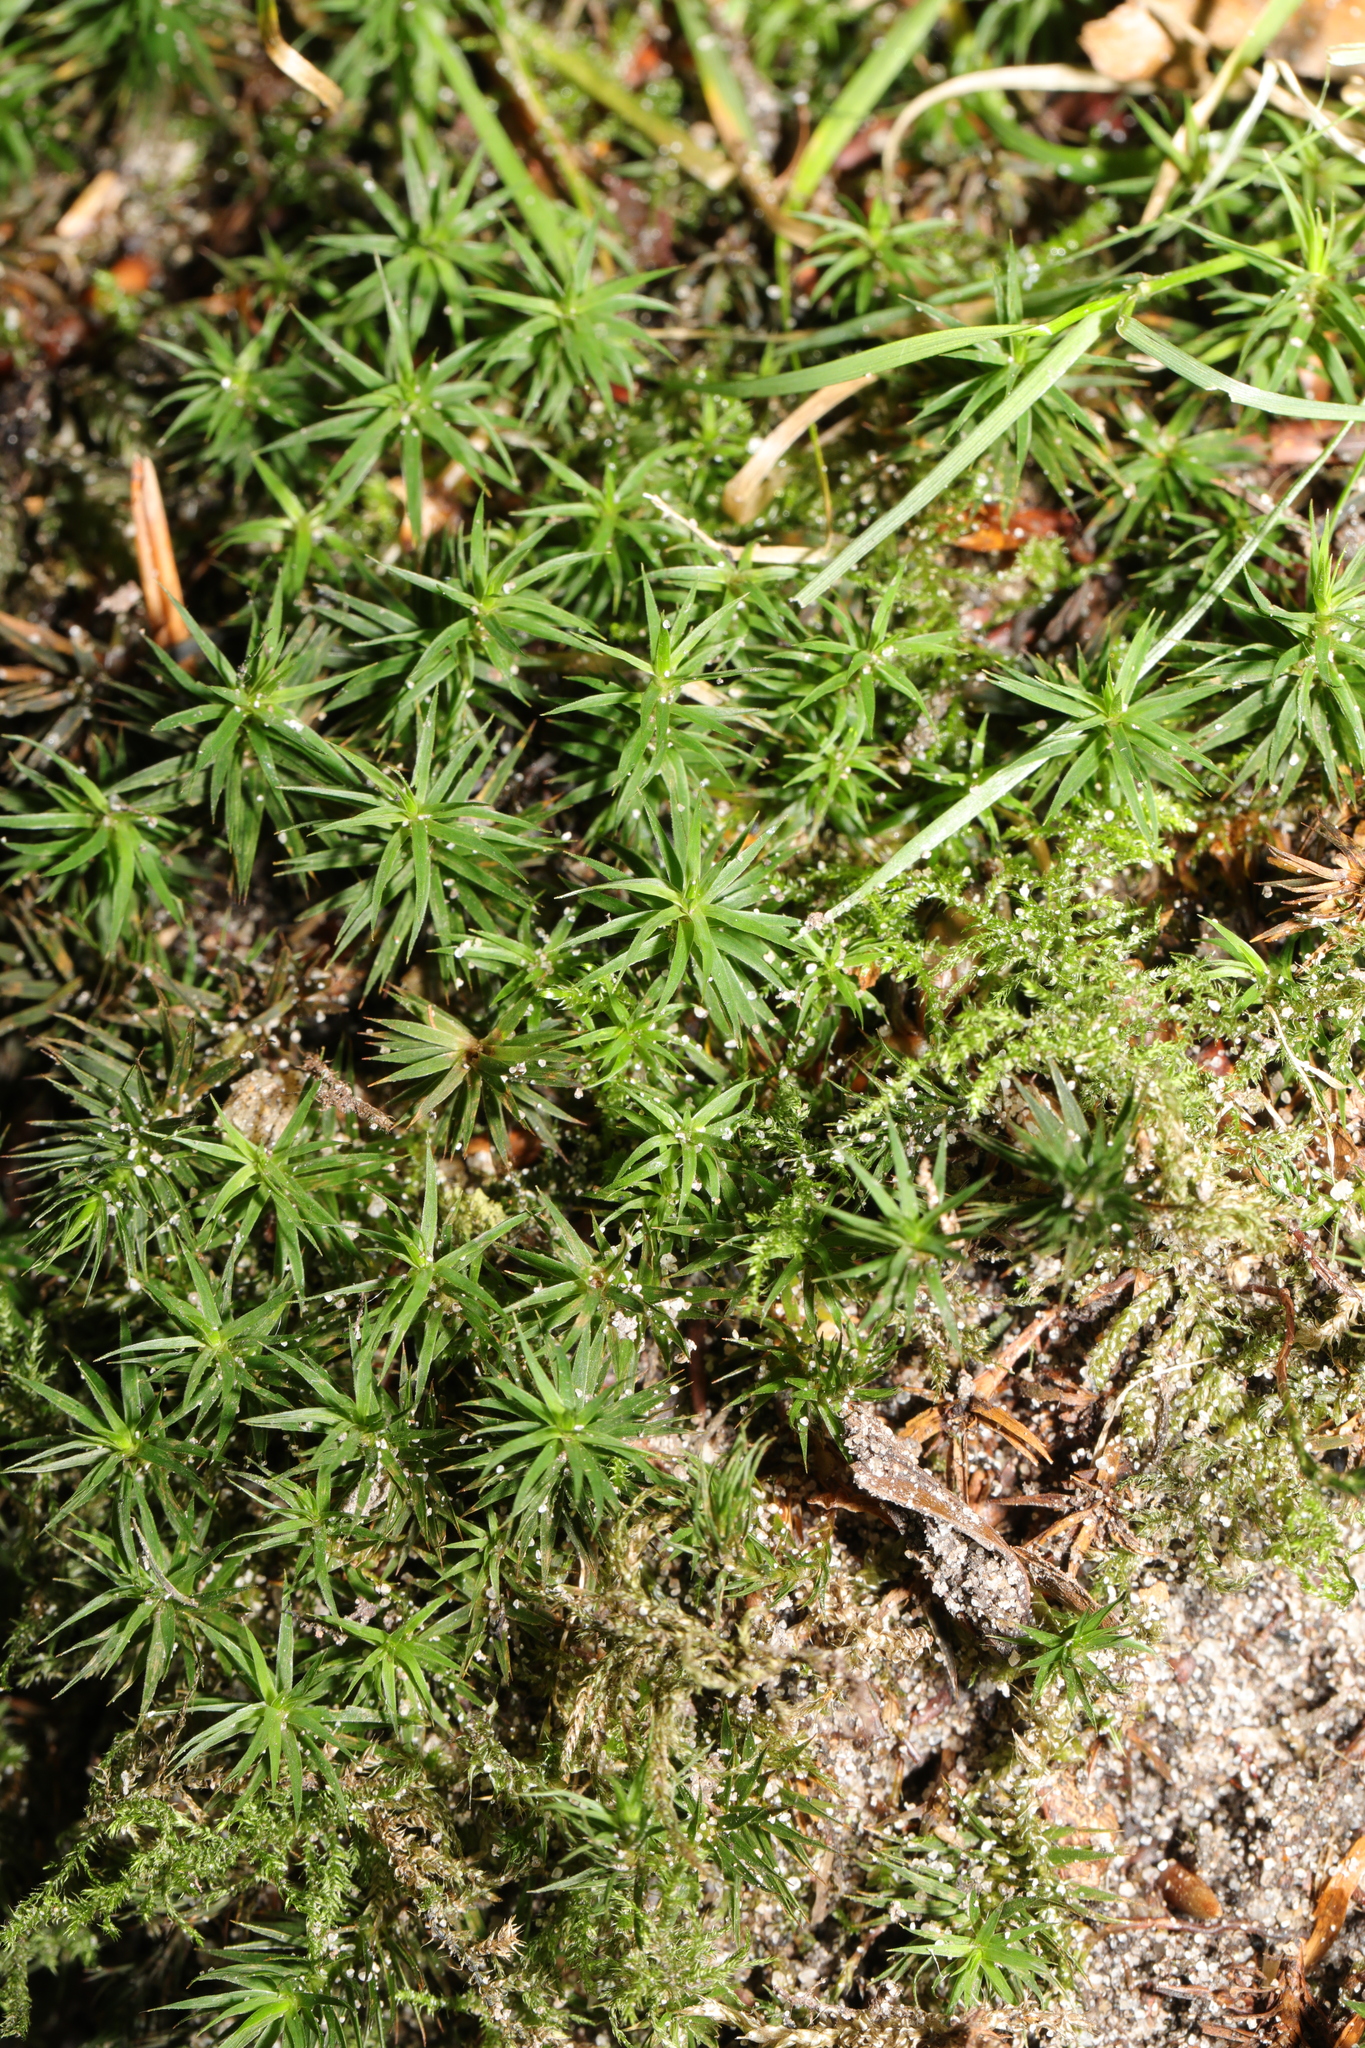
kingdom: Plantae
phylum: Bryophyta
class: Polytrichopsida
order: Polytrichales
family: Polytrichaceae
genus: Polytrichum
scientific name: Polytrichum formosum
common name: Bank haircap moss
